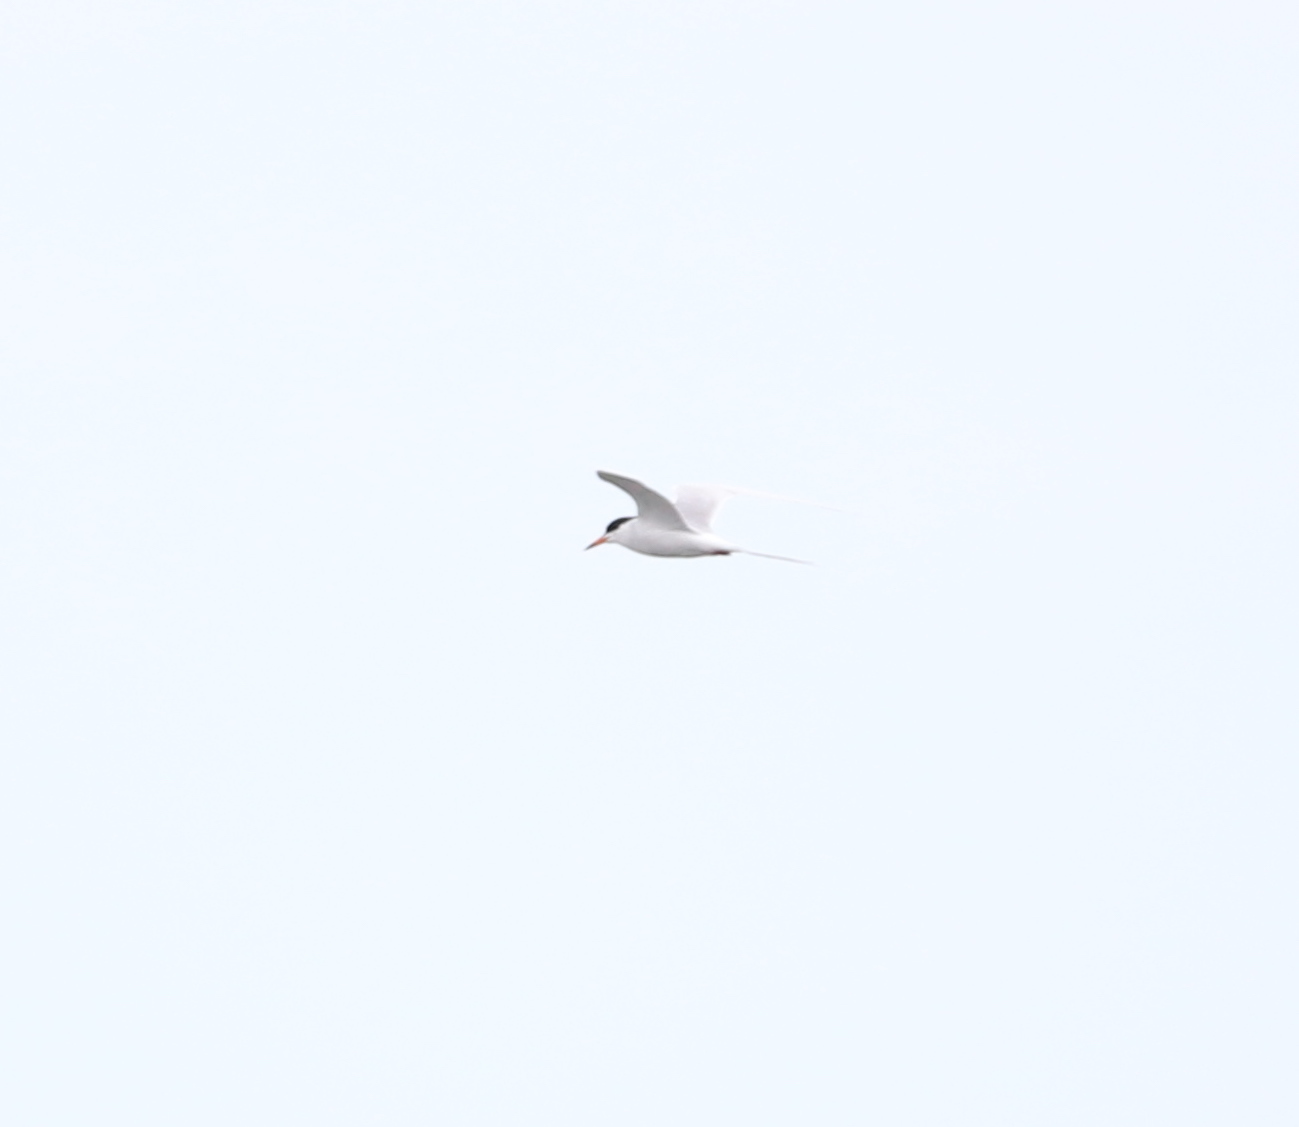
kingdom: Animalia
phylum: Chordata
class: Aves
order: Charadriiformes
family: Laridae
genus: Sterna
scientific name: Sterna forsteri
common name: Forster's tern
